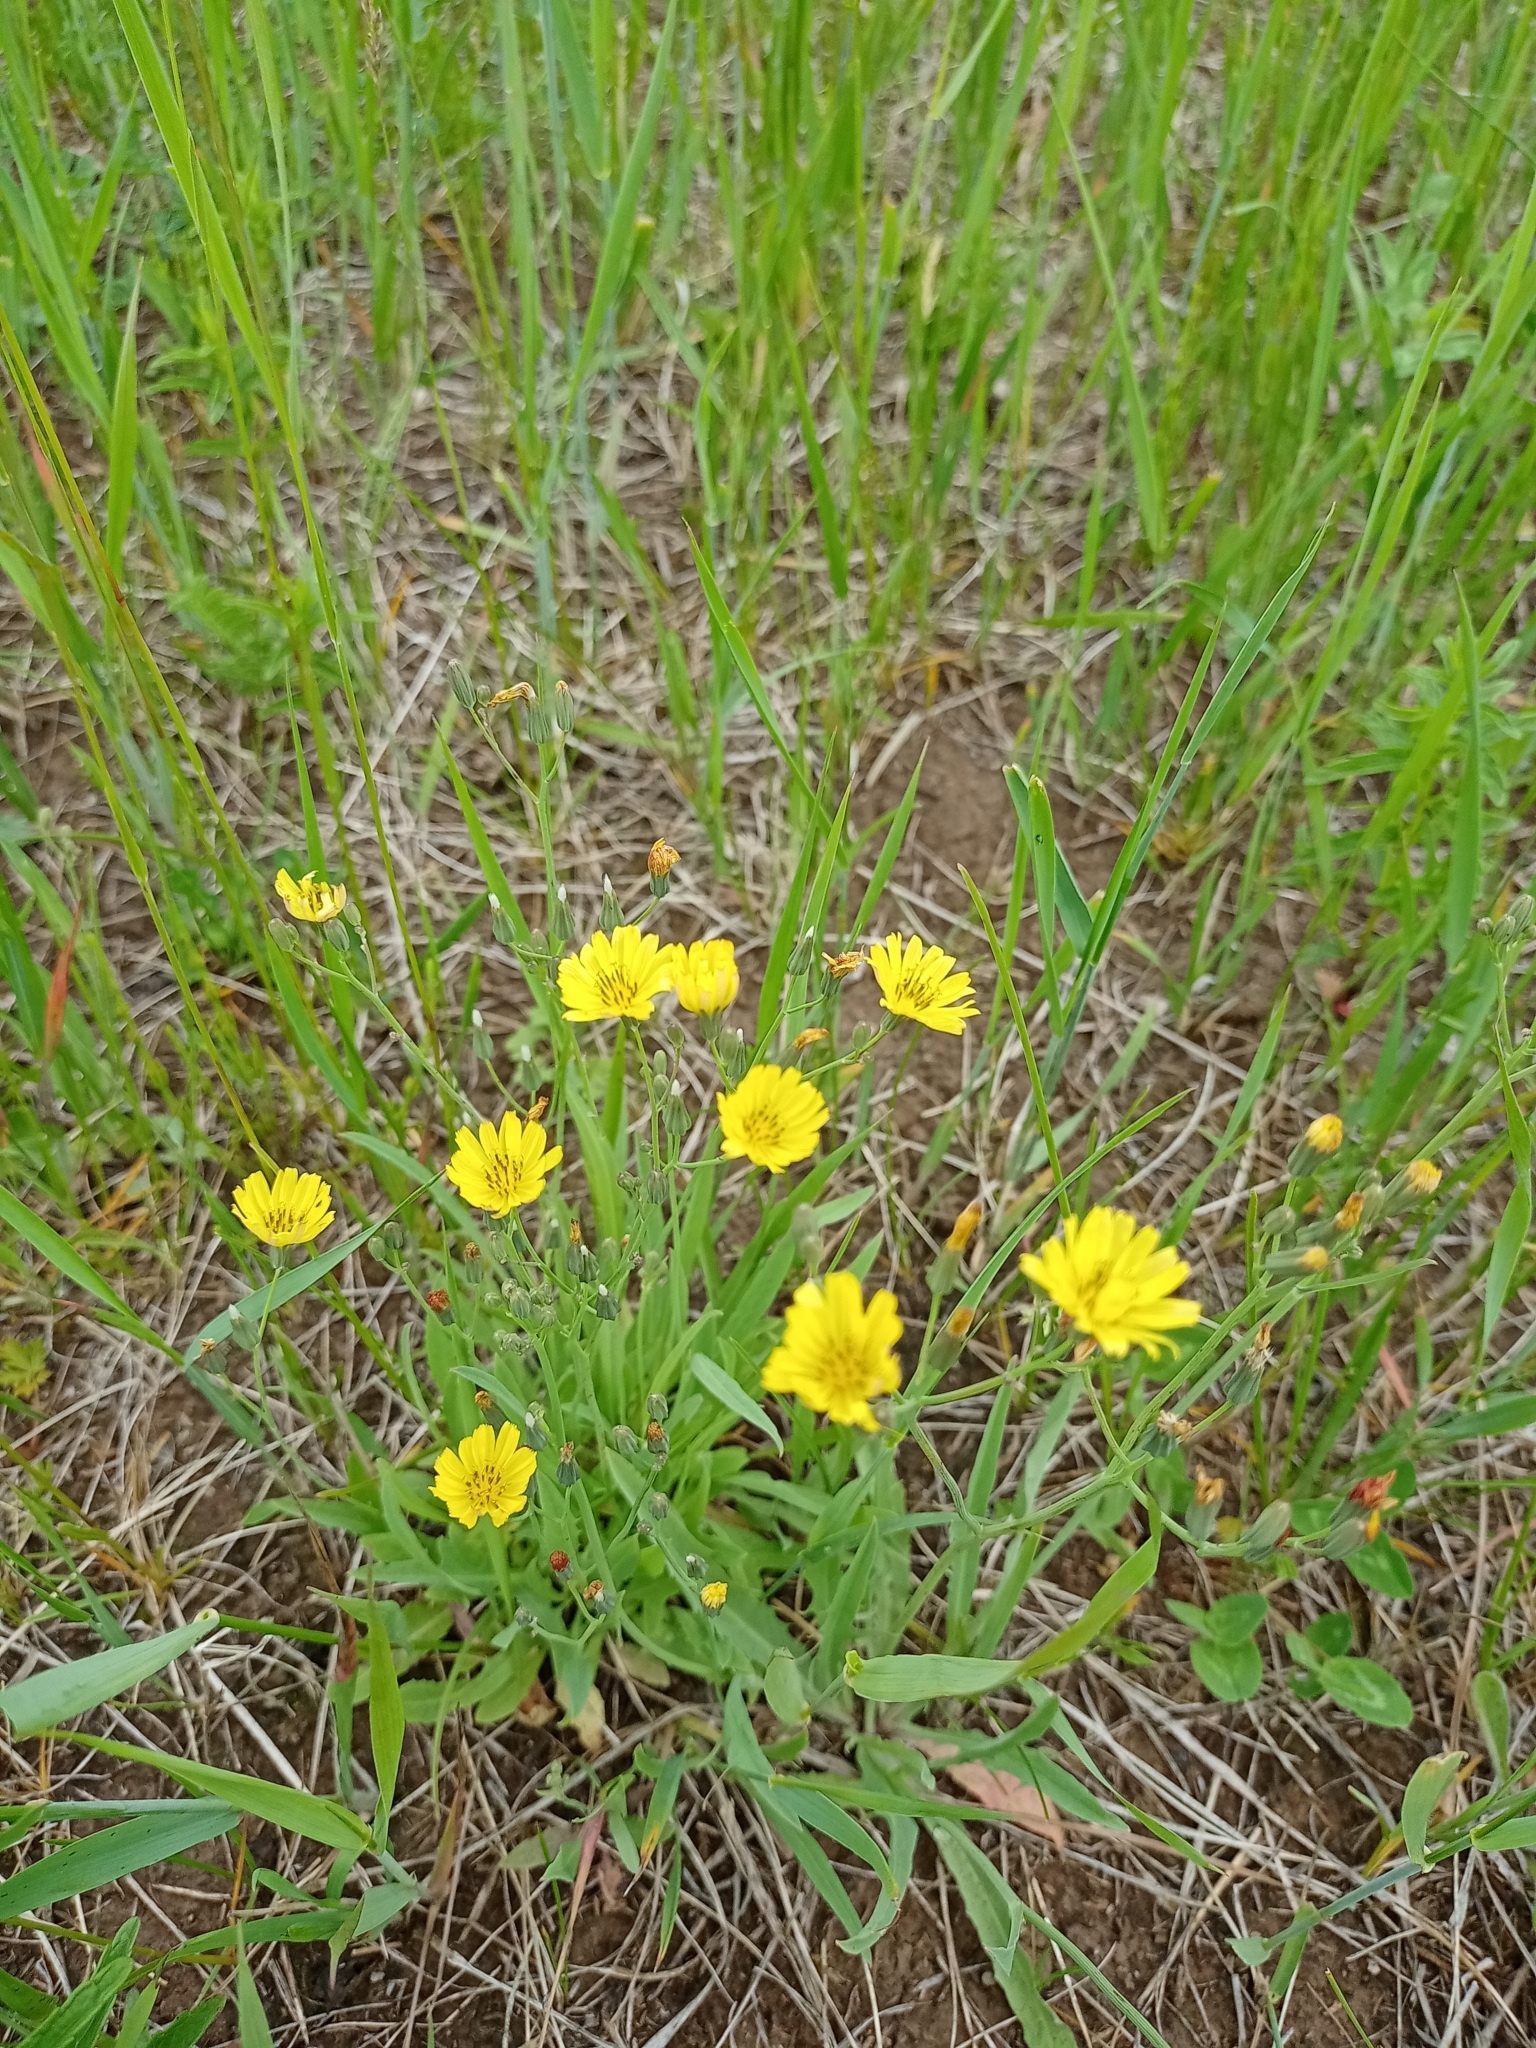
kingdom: Plantae
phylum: Tracheophyta
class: Magnoliopsida
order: Asterales
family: Asteraceae
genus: Ixeris
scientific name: Ixeris chinensis
